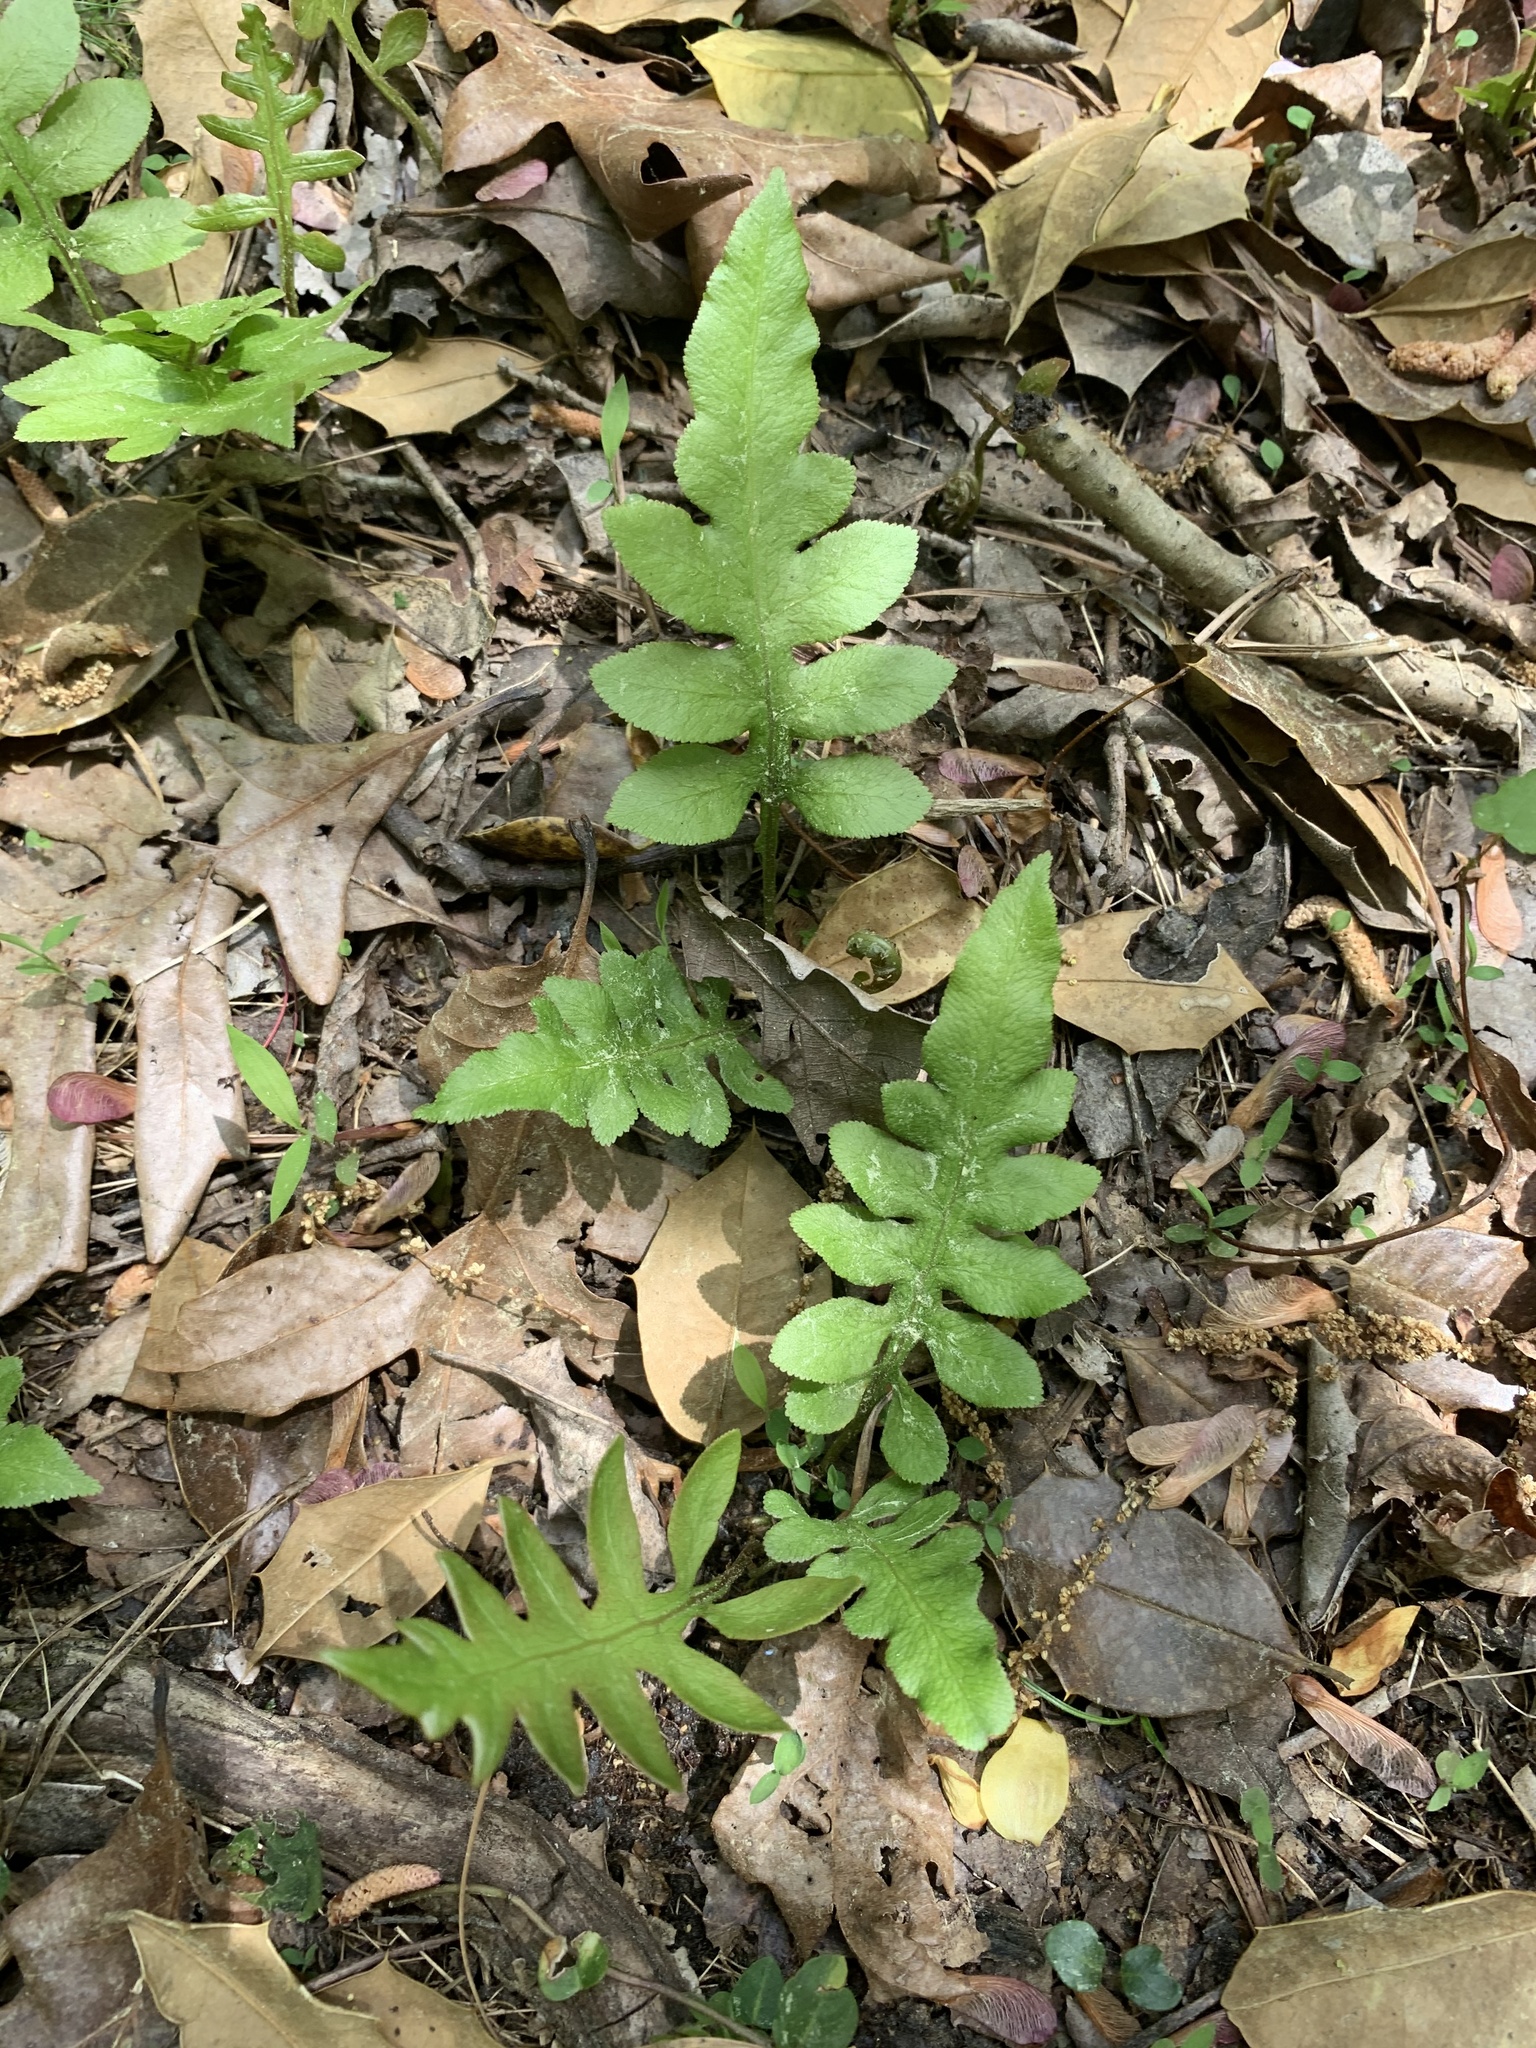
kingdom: Plantae
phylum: Tracheophyta
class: Polypodiopsida
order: Polypodiales
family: Blechnaceae
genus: Lorinseria
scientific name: Lorinseria areolata
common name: Dwarf chain fern
